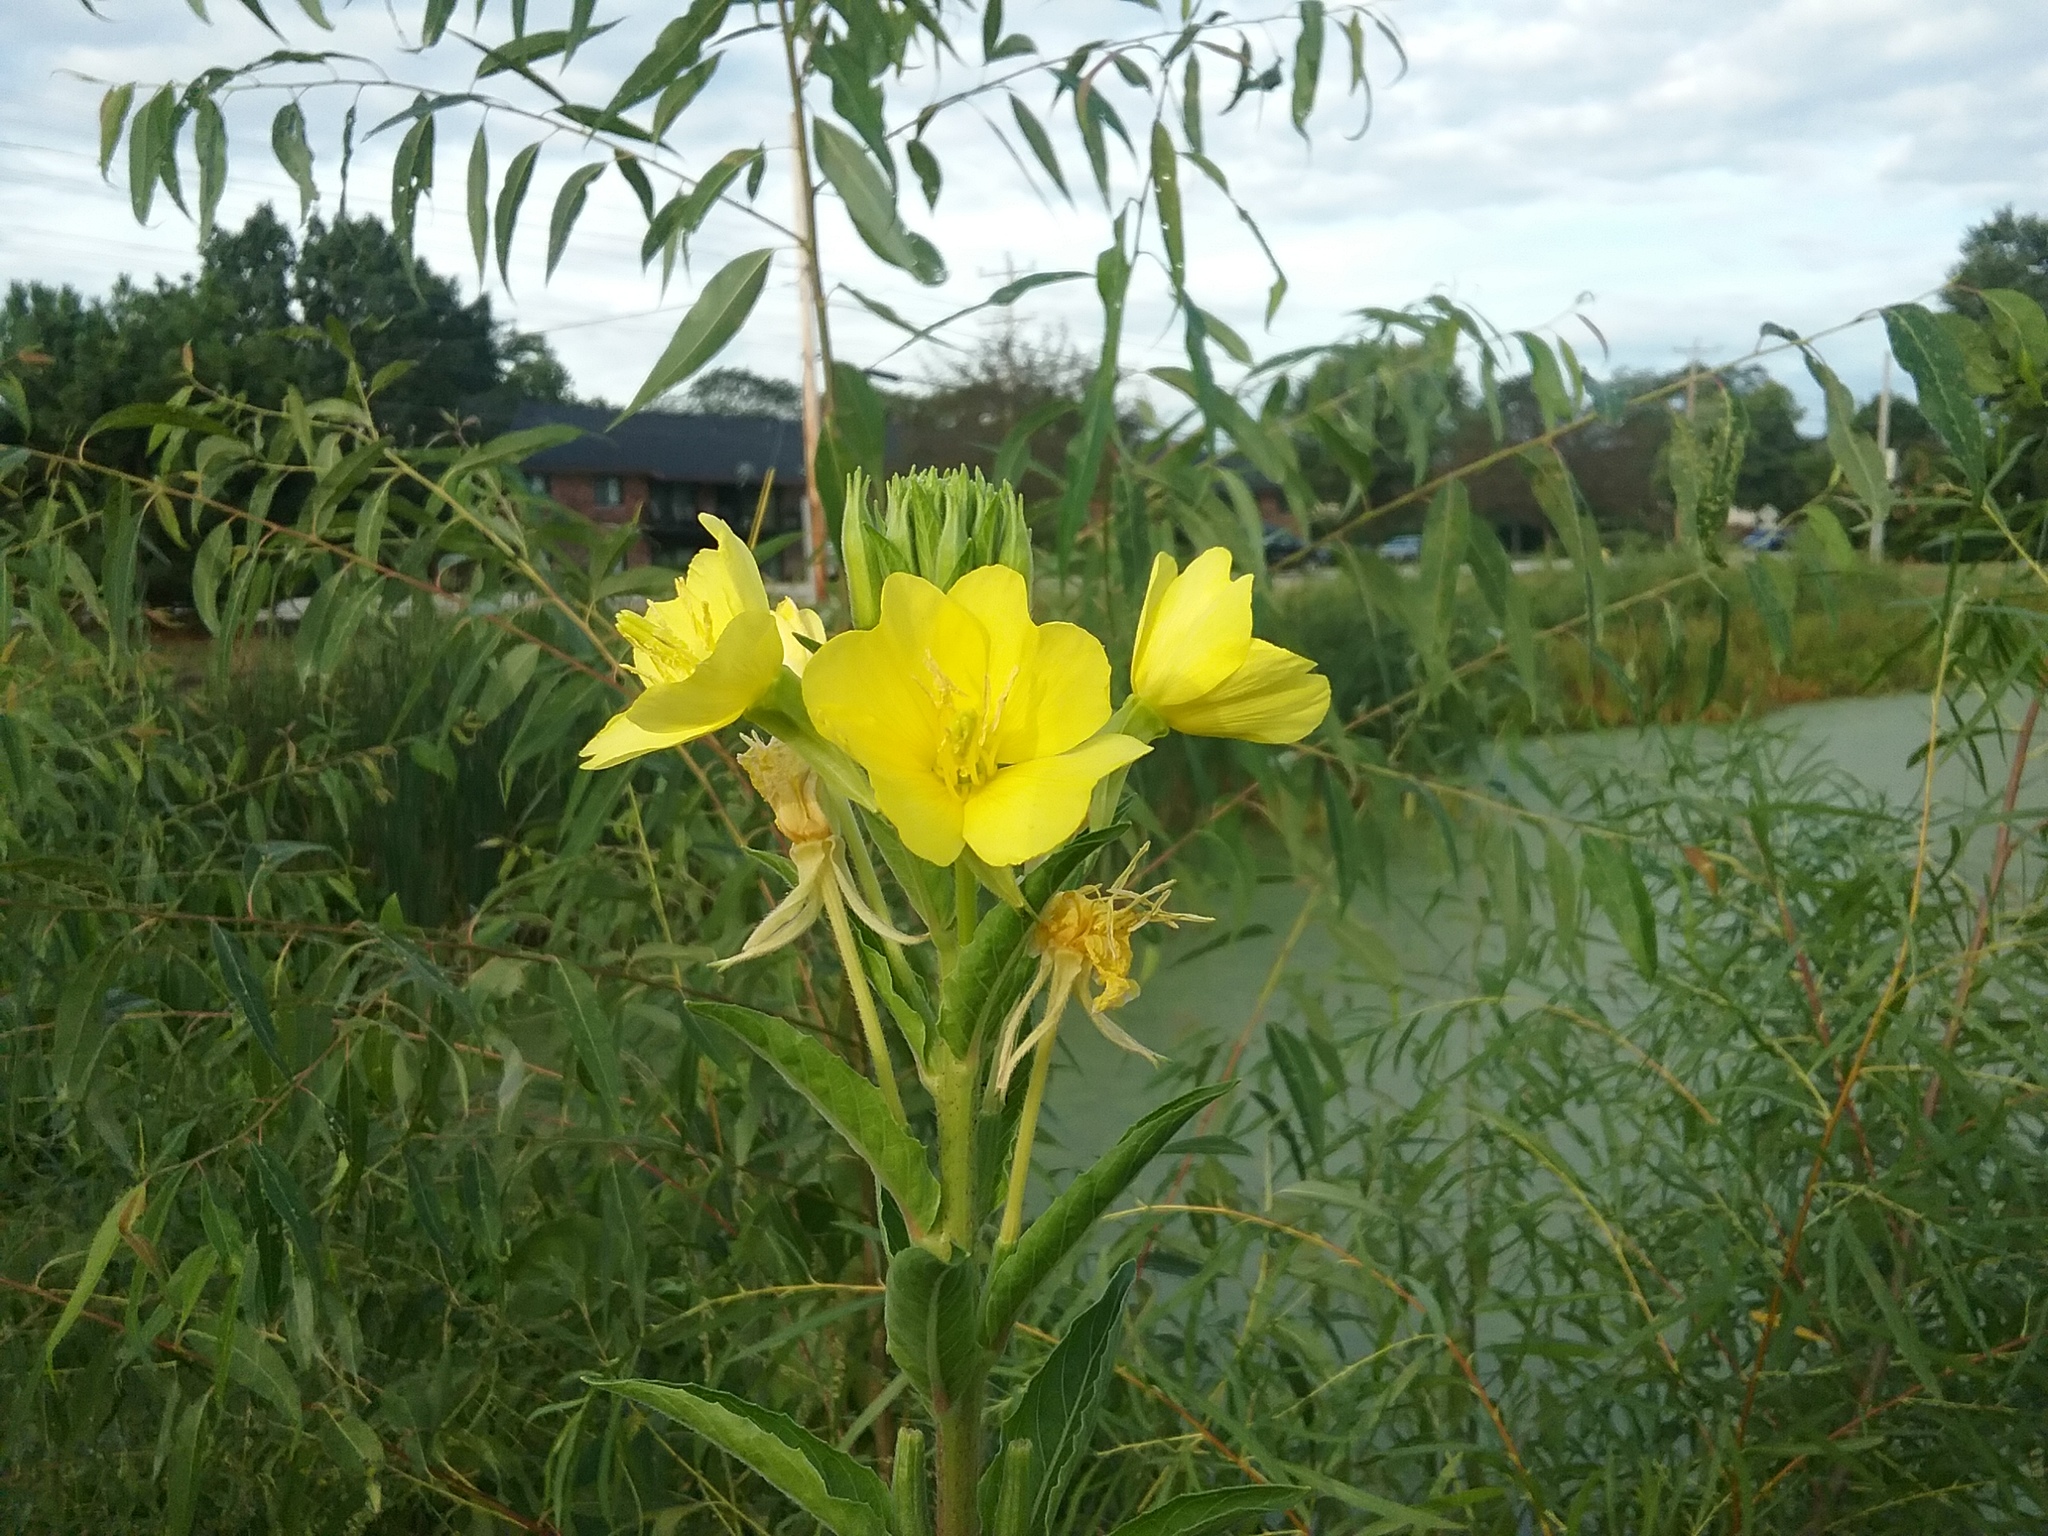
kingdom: Plantae
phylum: Tracheophyta
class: Magnoliopsida
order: Myrtales
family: Onagraceae
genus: Oenothera
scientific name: Oenothera biennis
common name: Common evening-primrose
